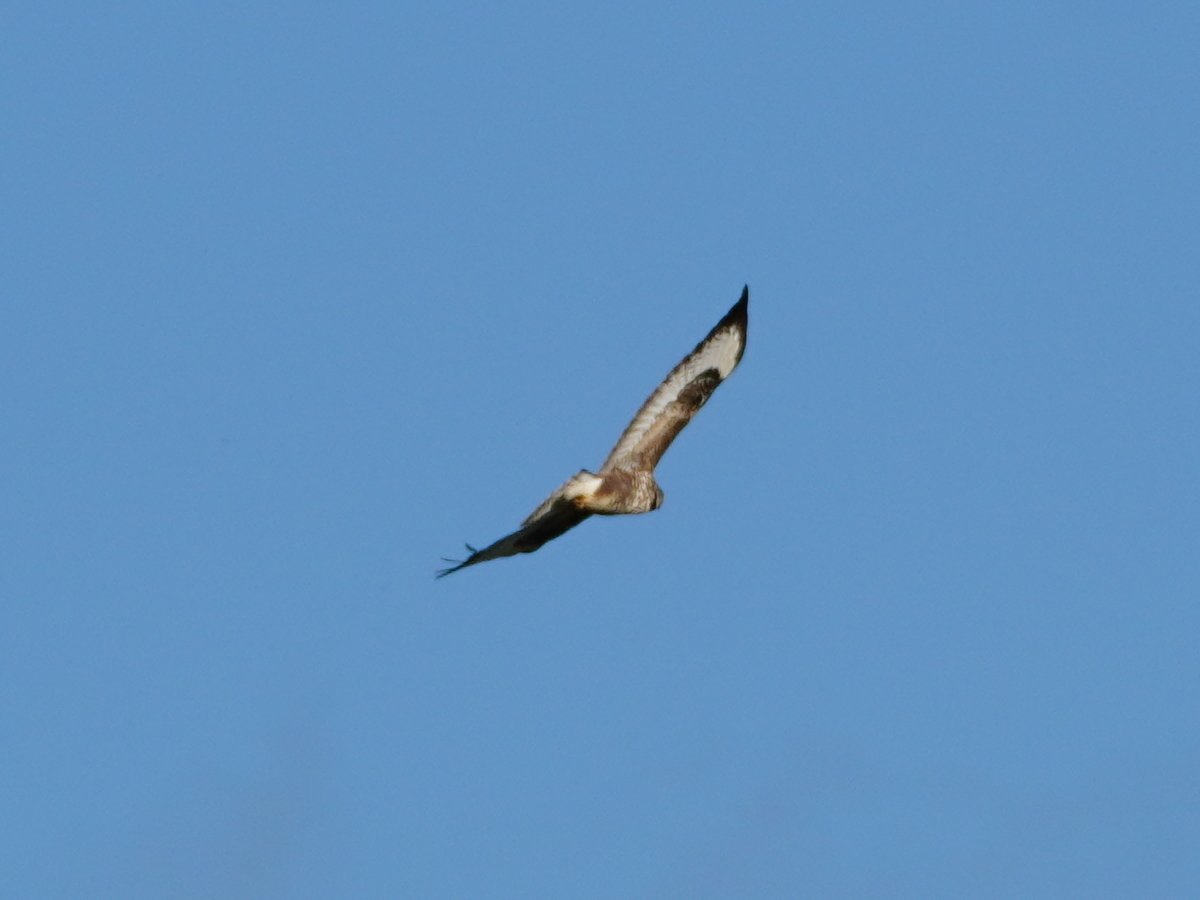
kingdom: Animalia
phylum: Chordata
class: Aves
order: Accipitriformes
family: Accipitridae
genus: Buteo
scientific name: Buteo buteo
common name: Common buzzard
